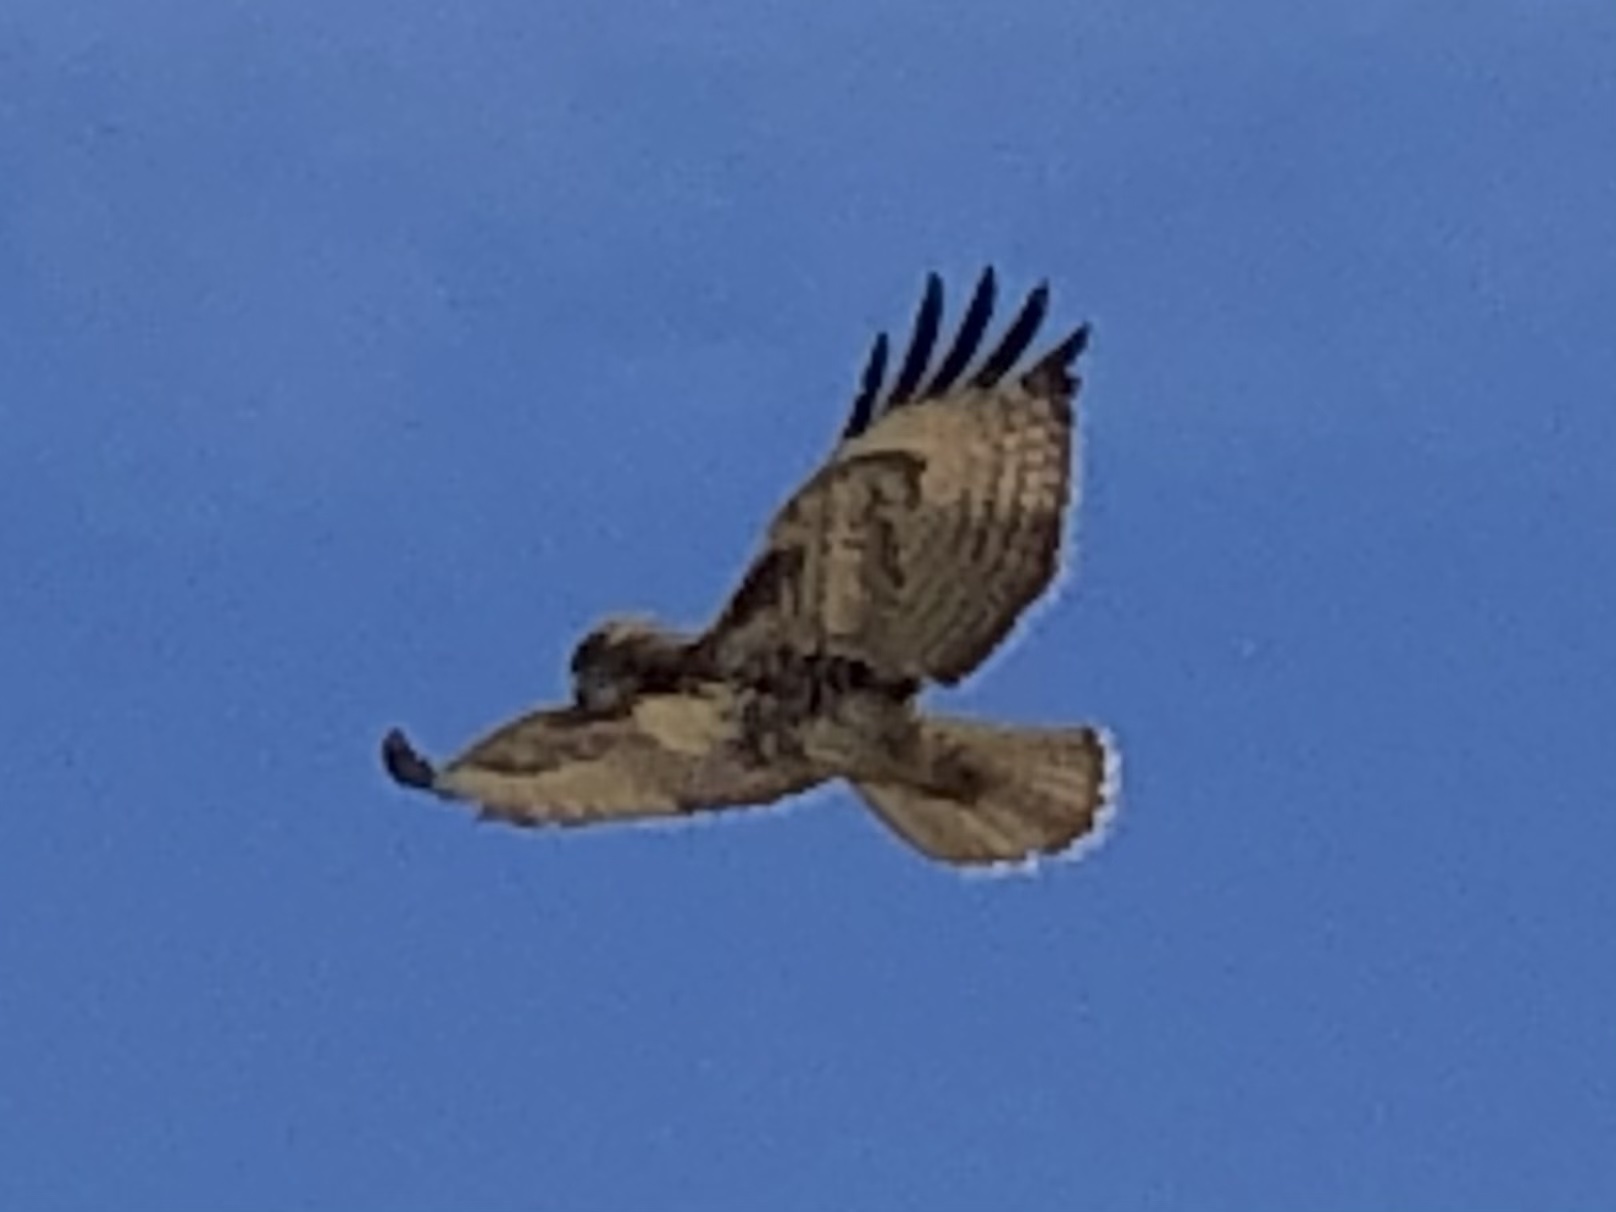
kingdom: Animalia
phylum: Chordata
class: Aves
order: Accipitriformes
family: Accipitridae
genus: Buteo
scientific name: Buteo jamaicensis
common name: Red-tailed hawk
